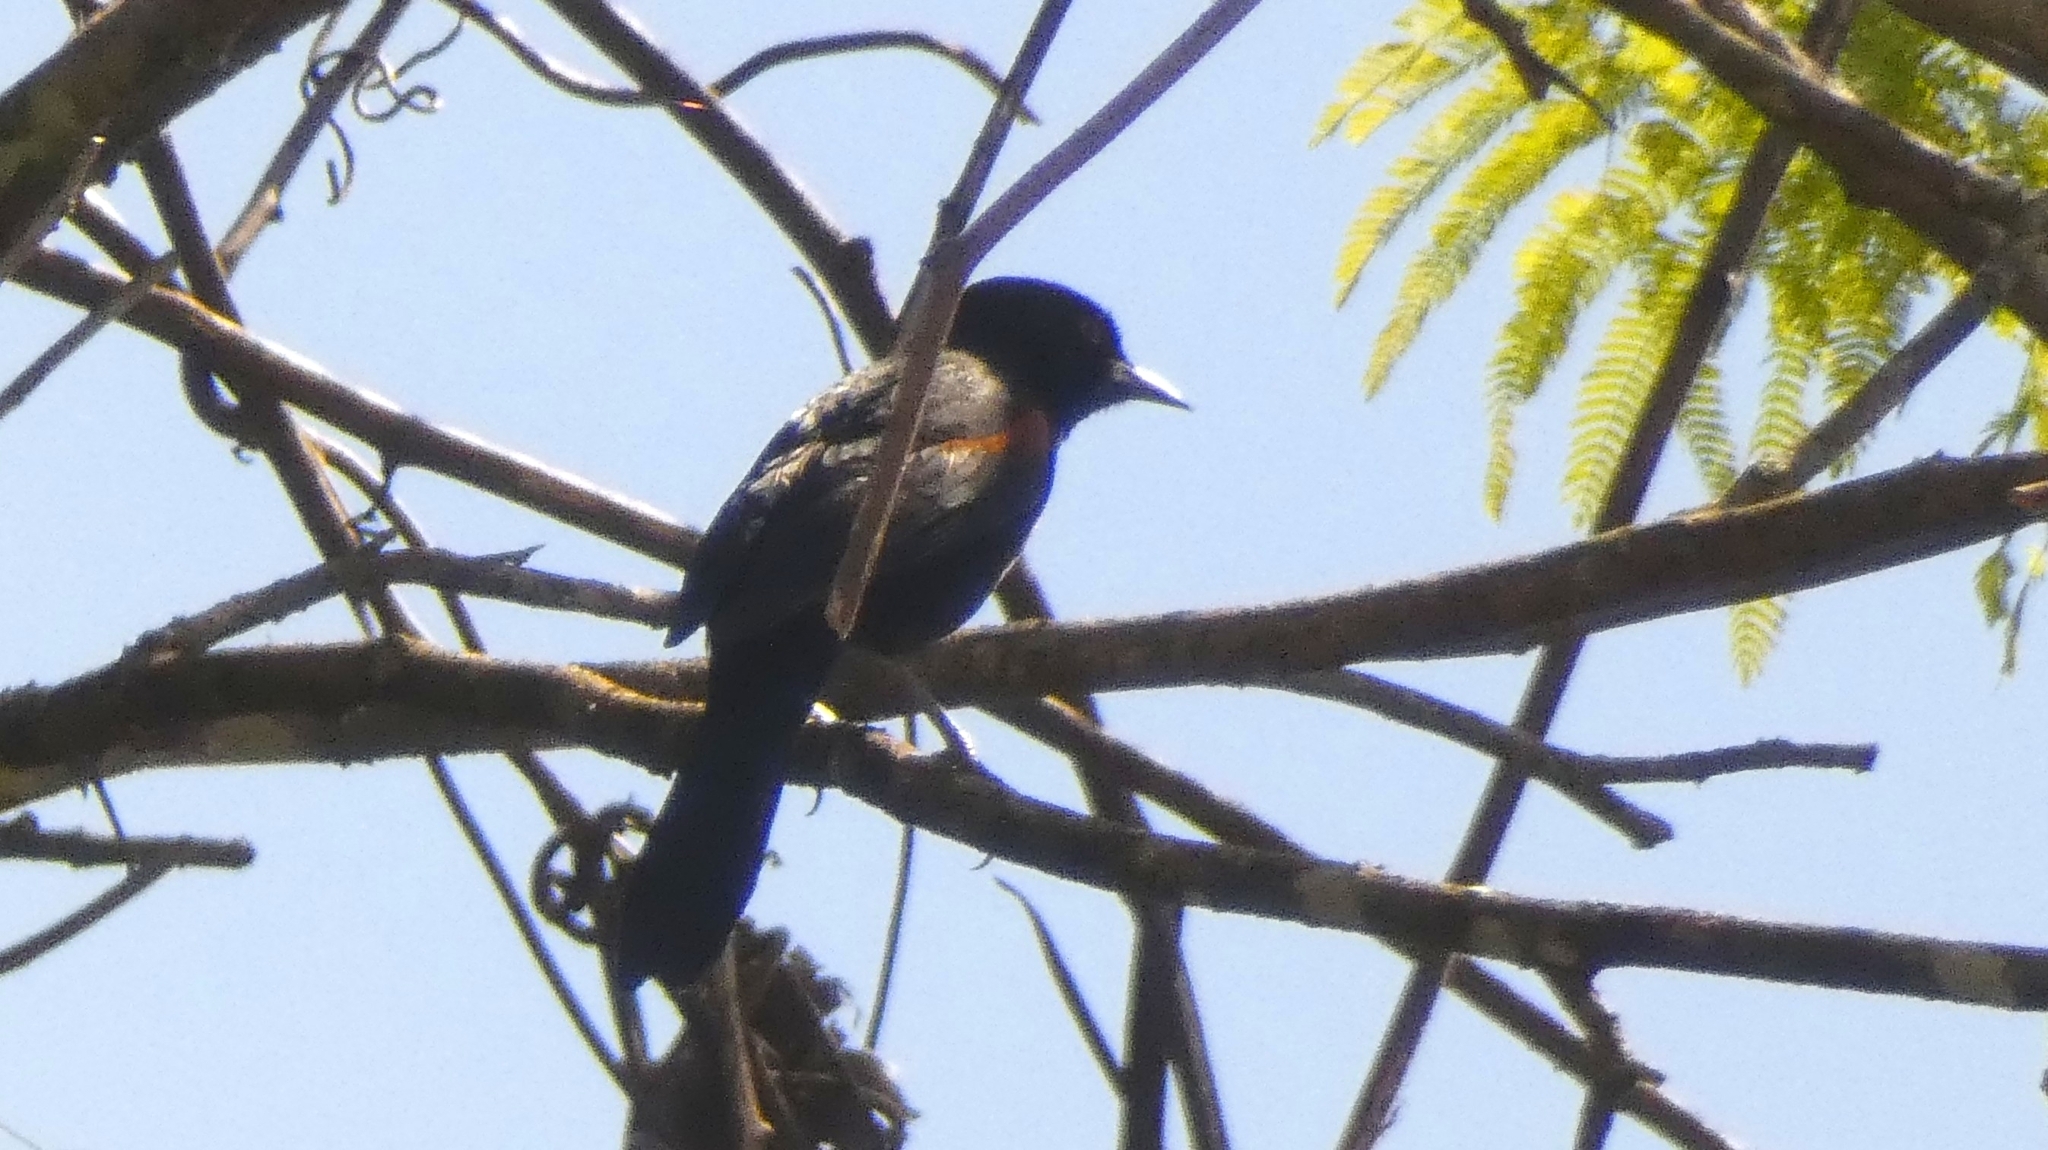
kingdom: Animalia
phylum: Chordata
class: Aves
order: Passeriformes
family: Icteridae
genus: Icterus
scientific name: Icterus cayanensis
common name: Epaulet oriole
